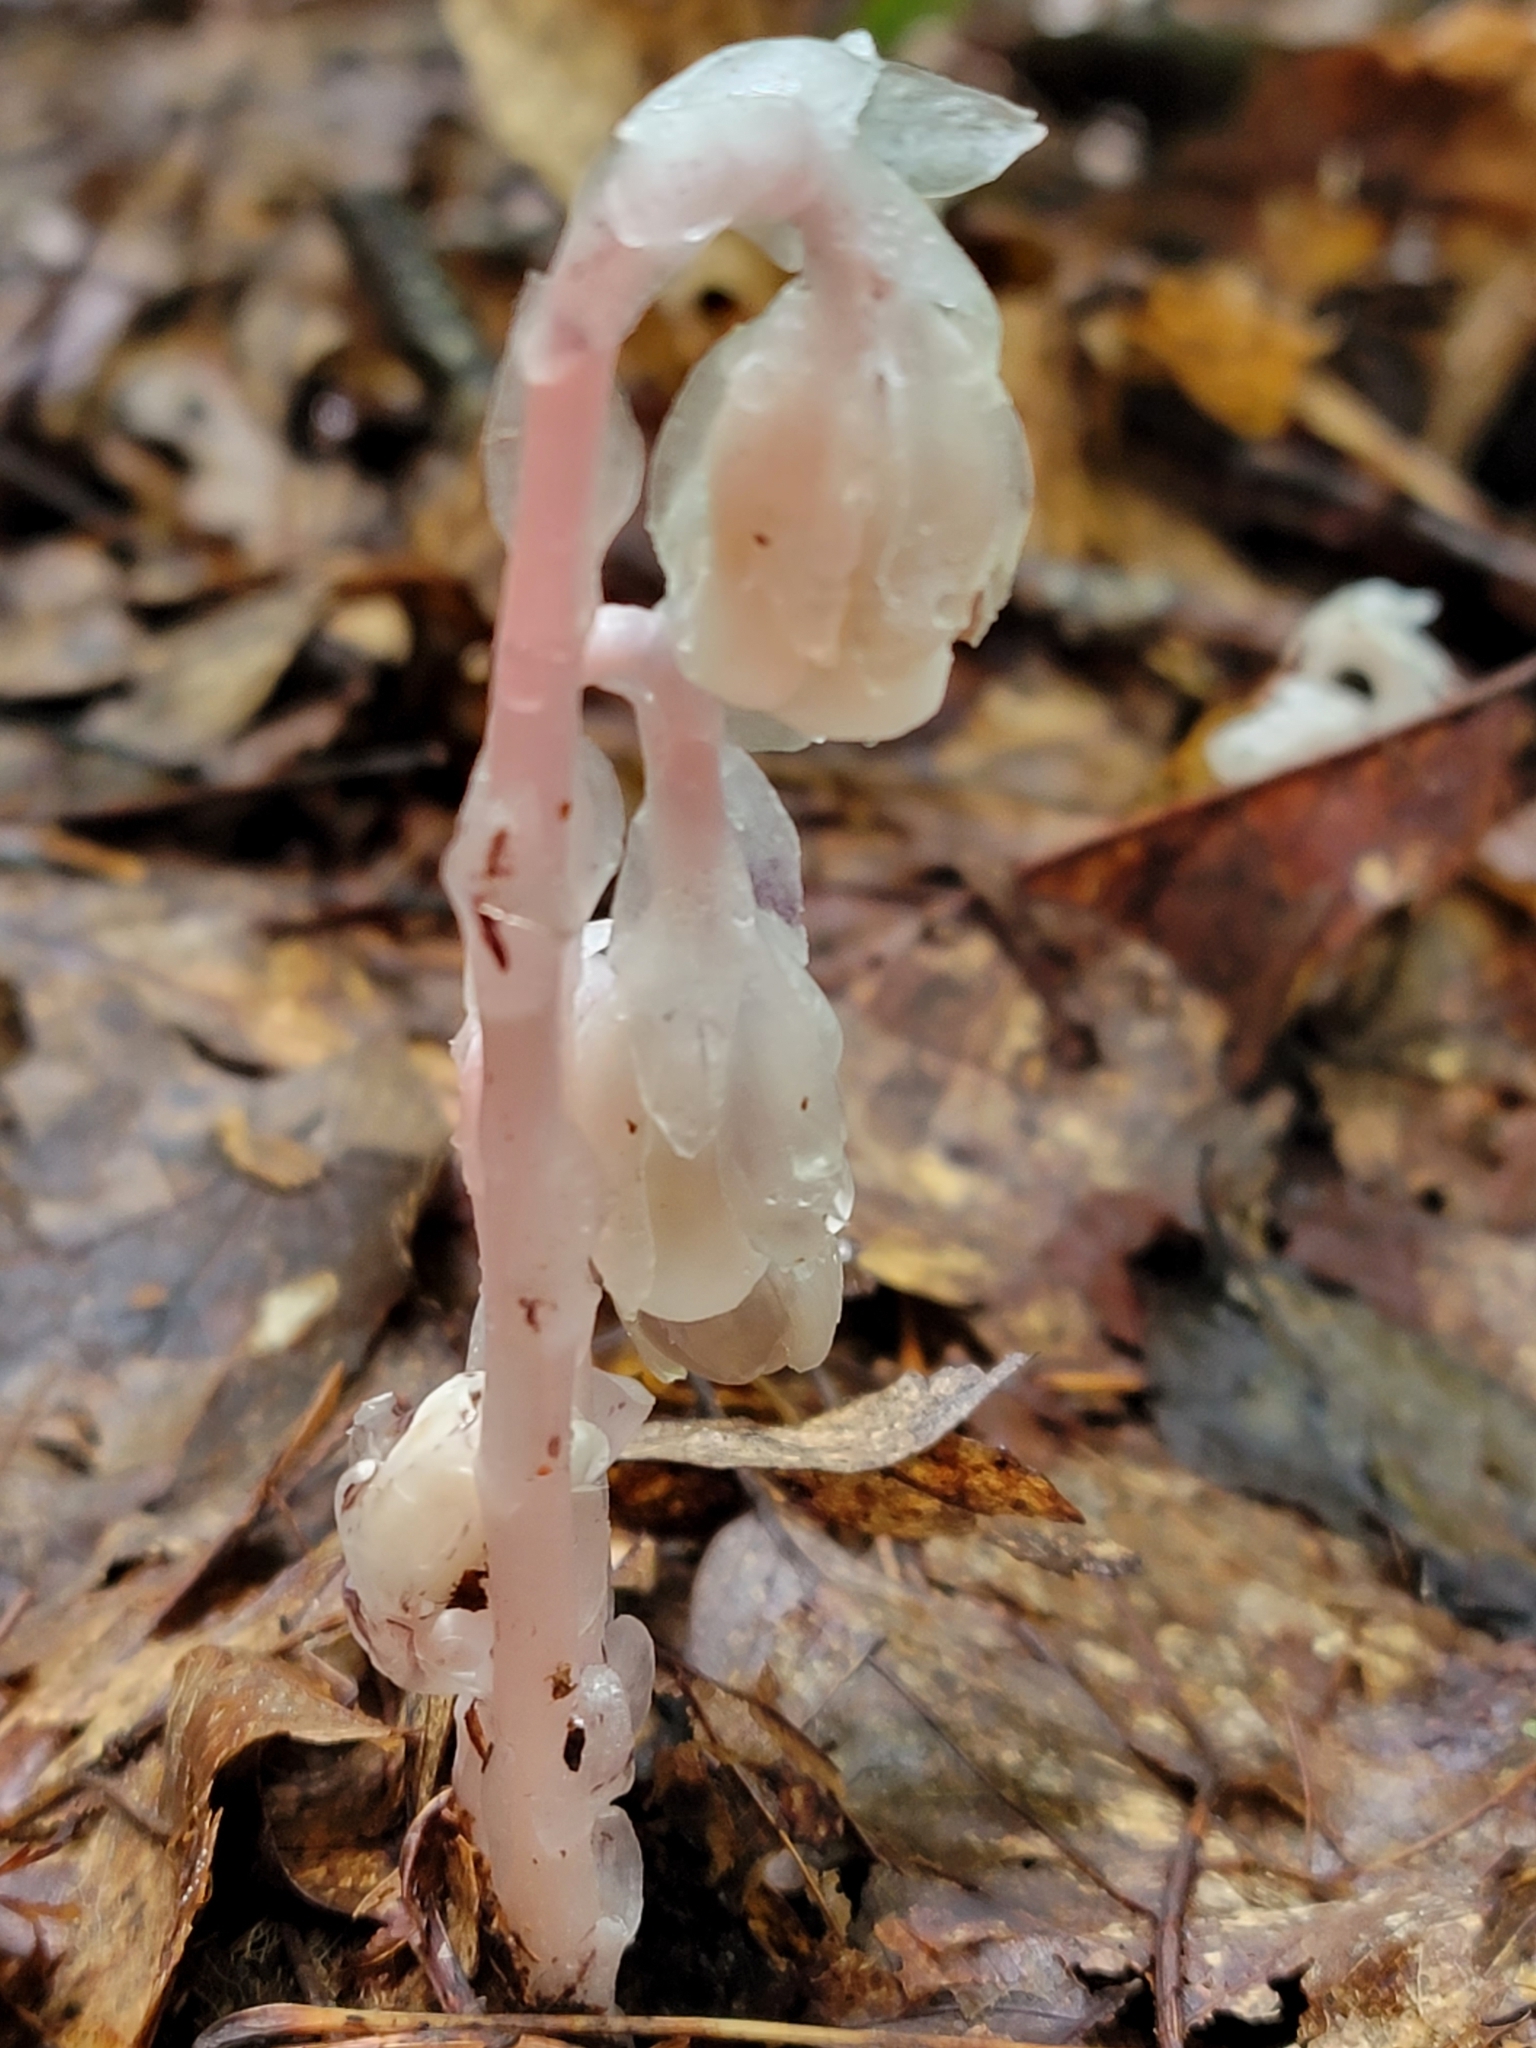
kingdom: Plantae
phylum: Tracheophyta
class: Magnoliopsida
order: Ericales
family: Ericaceae
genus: Monotropa
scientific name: Monotropa uniflora
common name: Convulsion root
